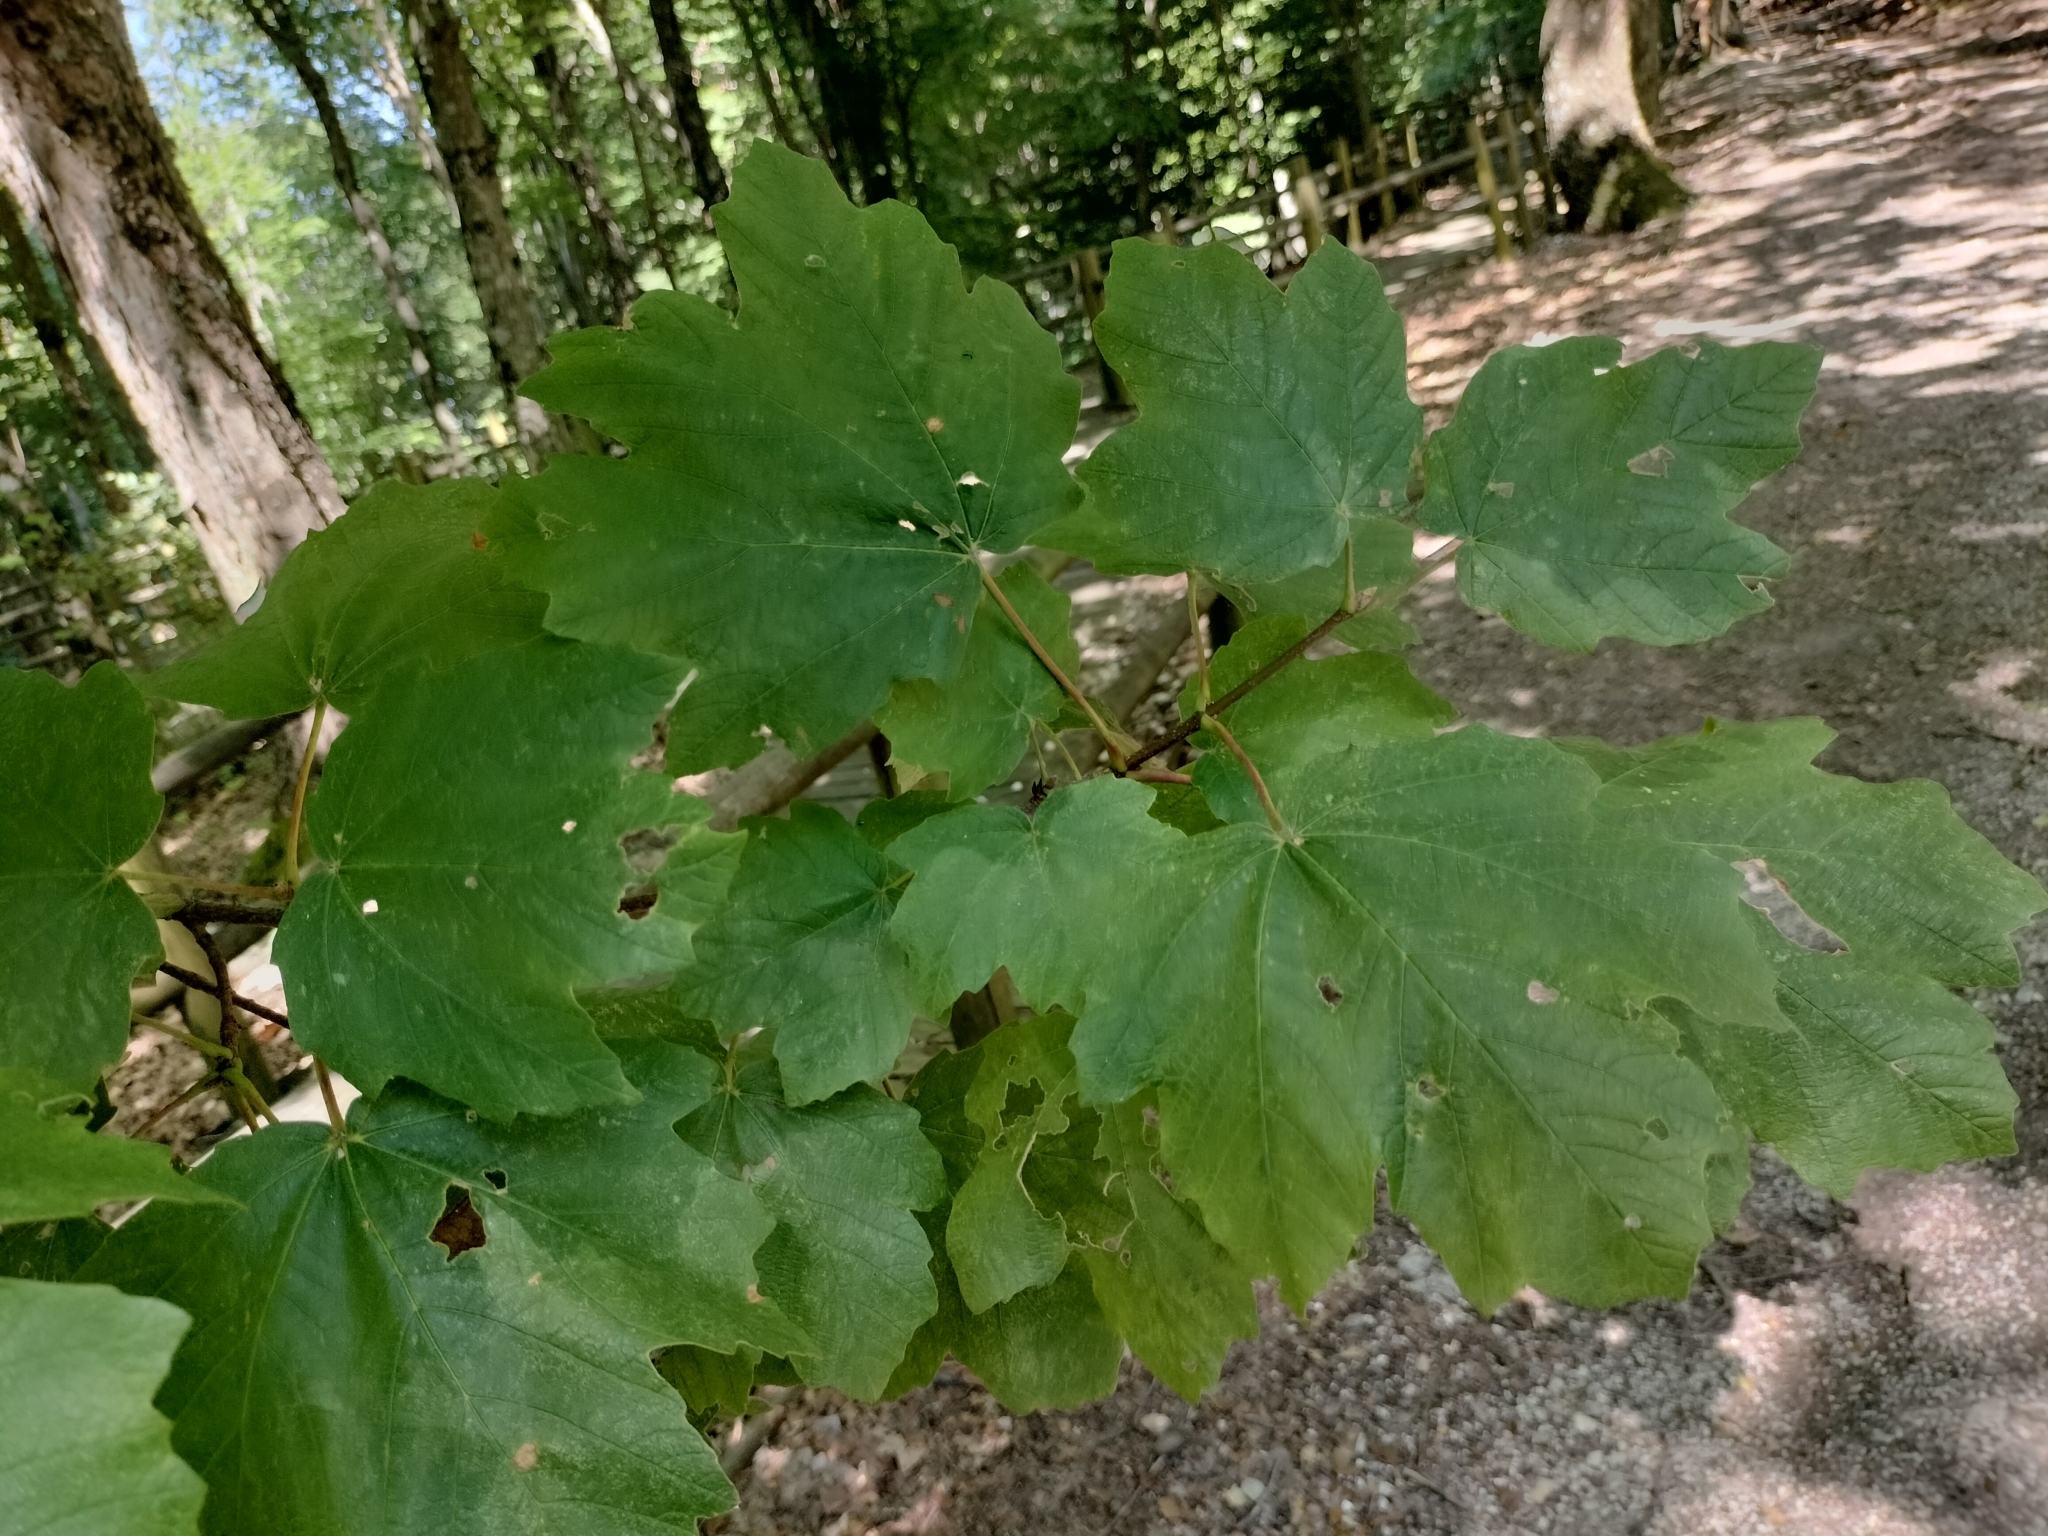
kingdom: Plantae
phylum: Tracheophyta
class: Magnoliopsida
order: Sapindales
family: Sapindaceae
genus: Acer
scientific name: Acer opalus
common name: Italian maple
